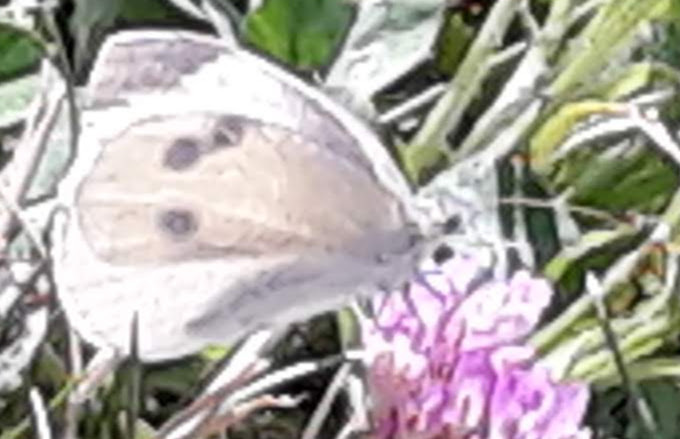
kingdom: Animalia
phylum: Arthropoda
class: Insecta
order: Lepidoptera
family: Pieridae
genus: Pieris
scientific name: Pieris rapae
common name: Small white
